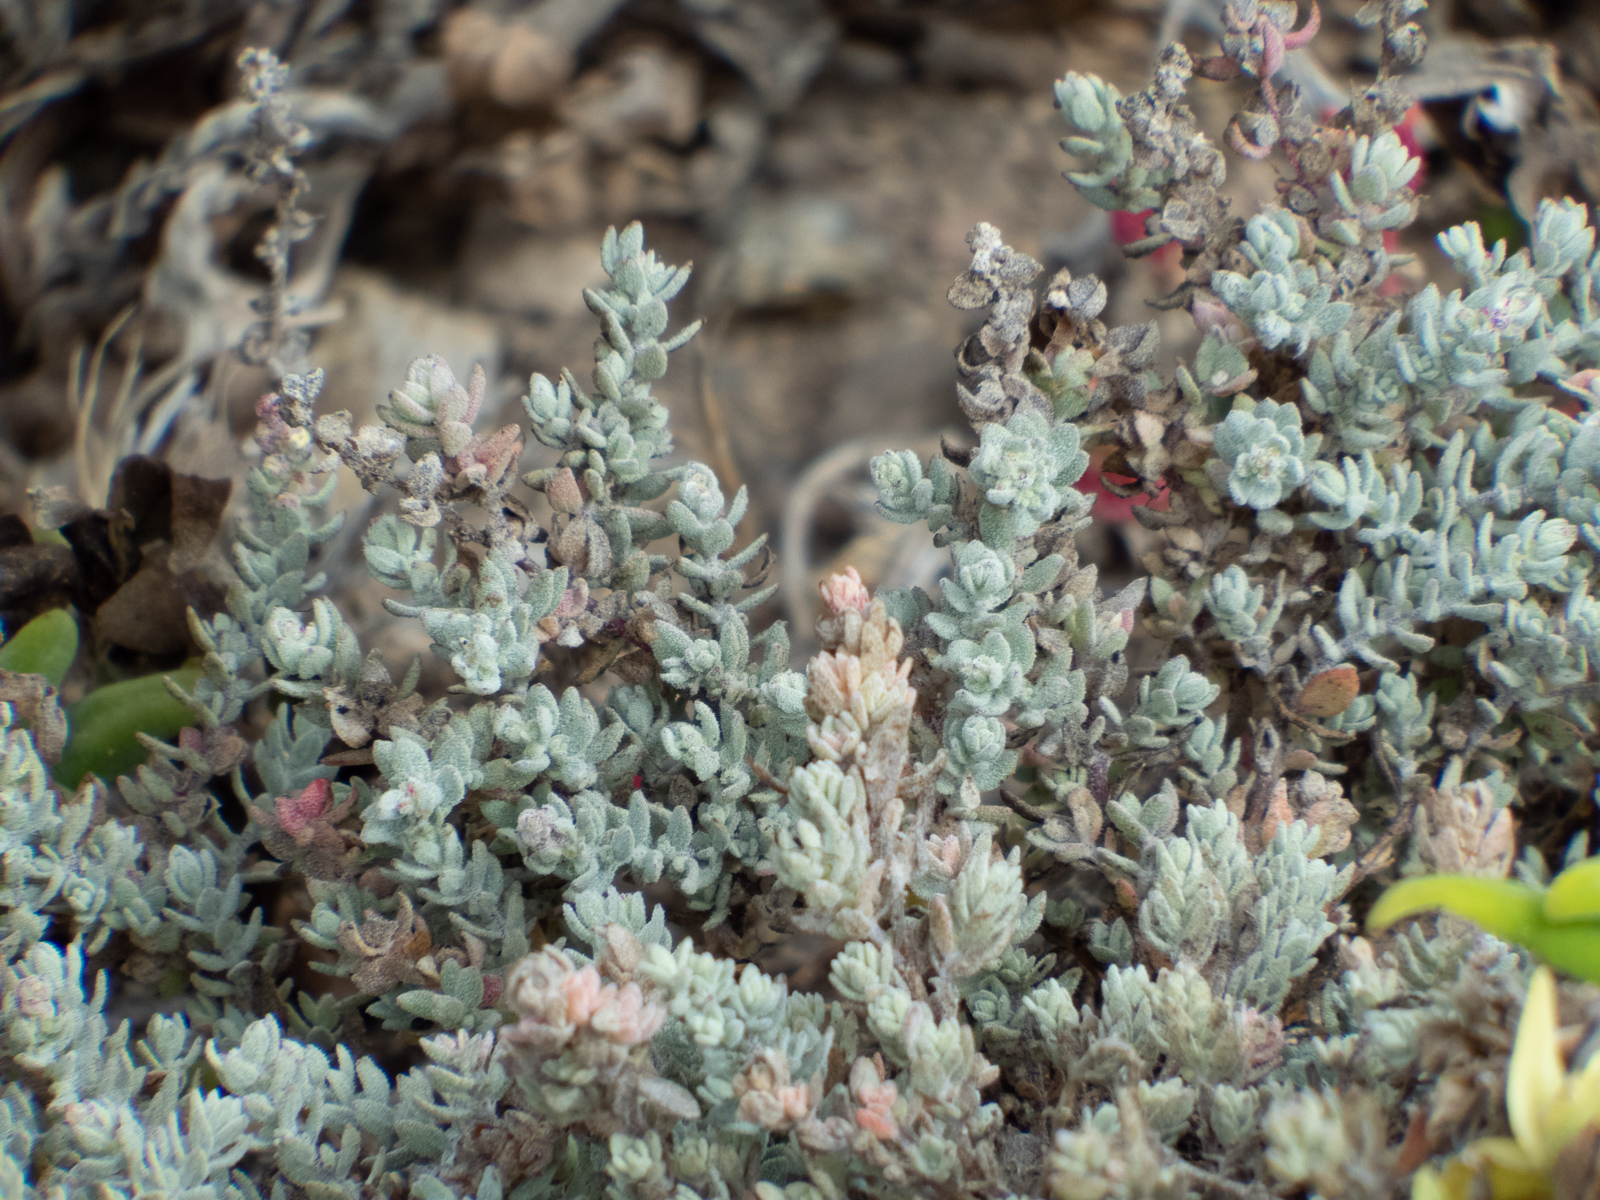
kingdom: Plantae
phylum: Tracheophyta
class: Magnoliopsida
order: Caryophyllales
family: Amaranthaceae
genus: Extriplex
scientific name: Extriplex californica
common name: California saltbush
